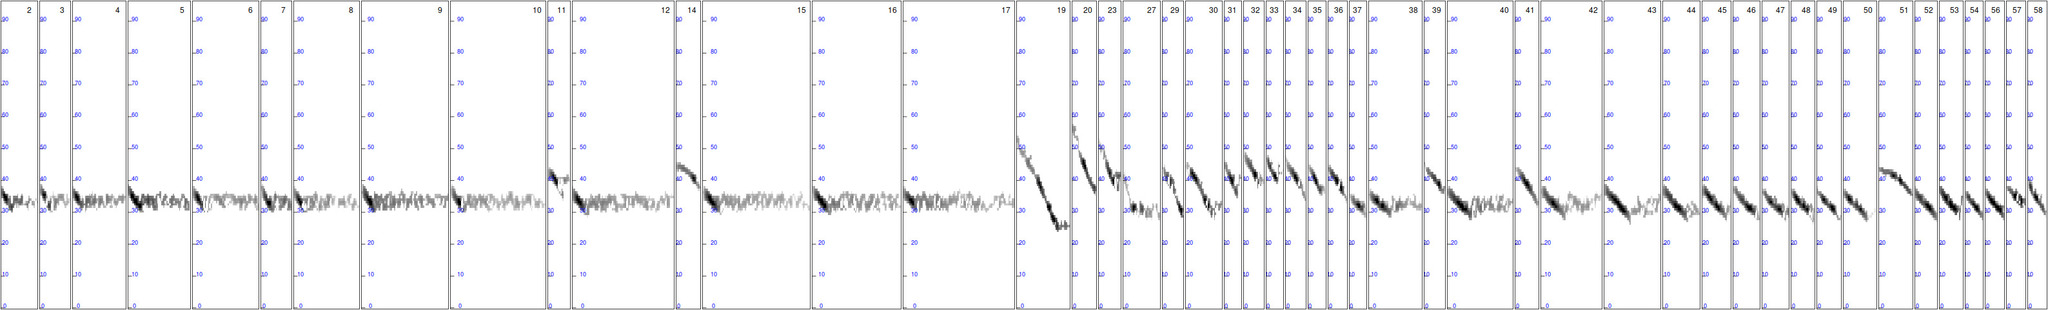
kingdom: Animalia
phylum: Chordata
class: Mammalia
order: Chiroptera
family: Vespertilionidae
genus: Barbastella
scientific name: Barbastella barbastellus
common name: Western barbastelle
